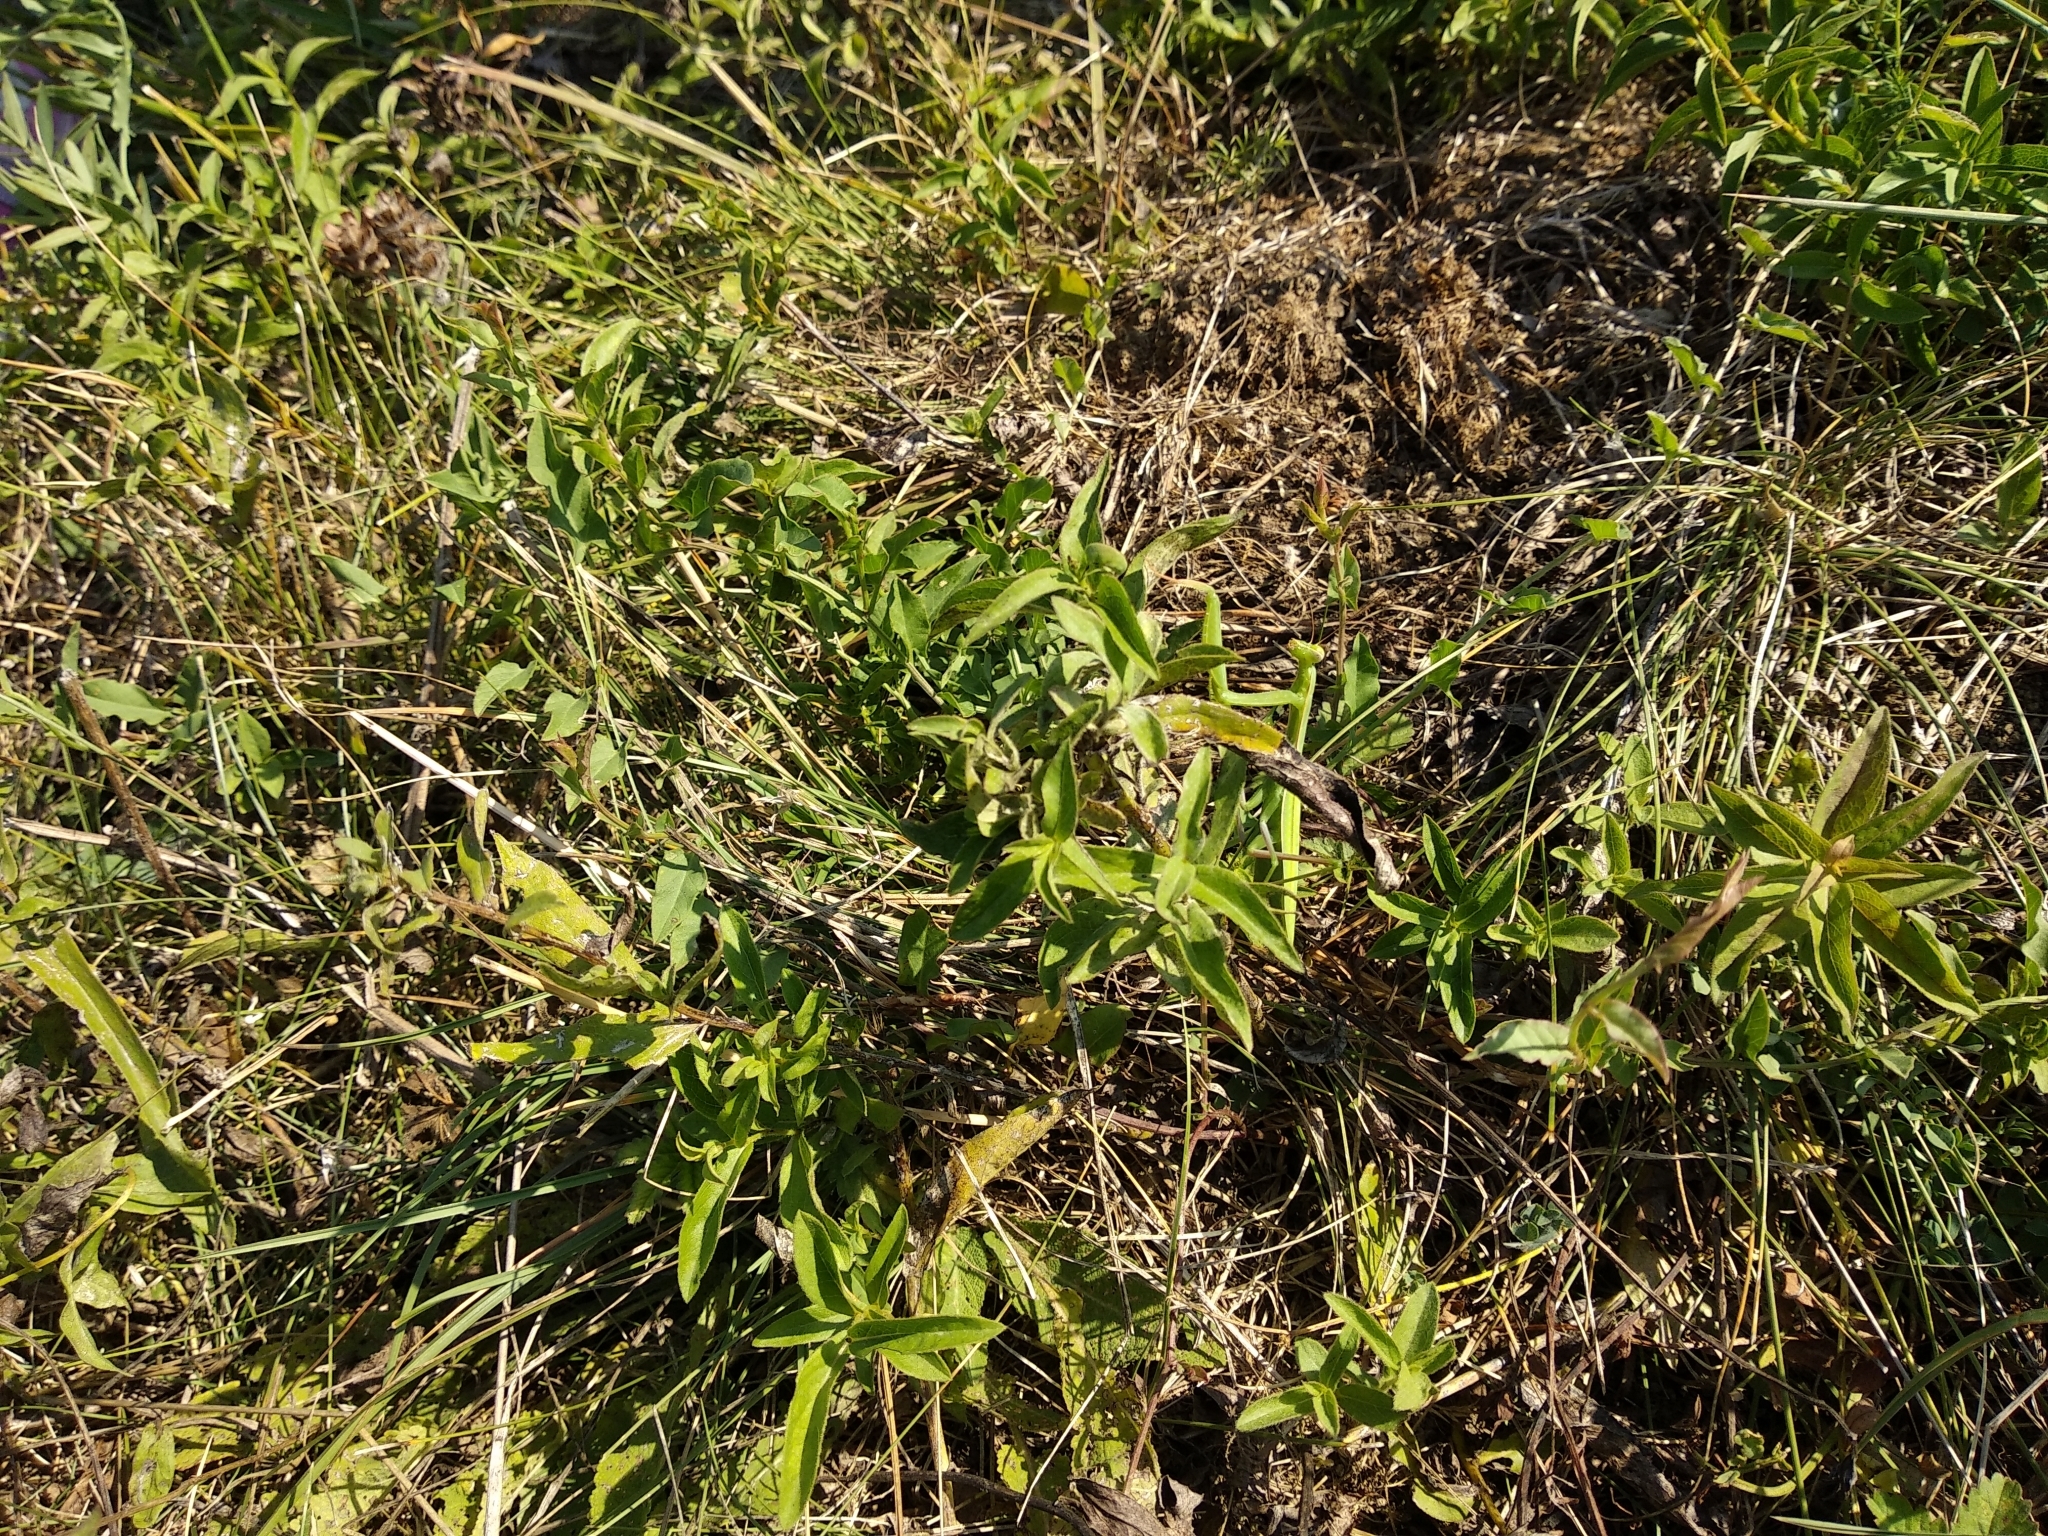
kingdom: Animalia
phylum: Arthropoda
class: Insecta
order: Mantodea
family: Mantidae
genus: Mantis
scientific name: Mantis religiosa
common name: Praying mantis
